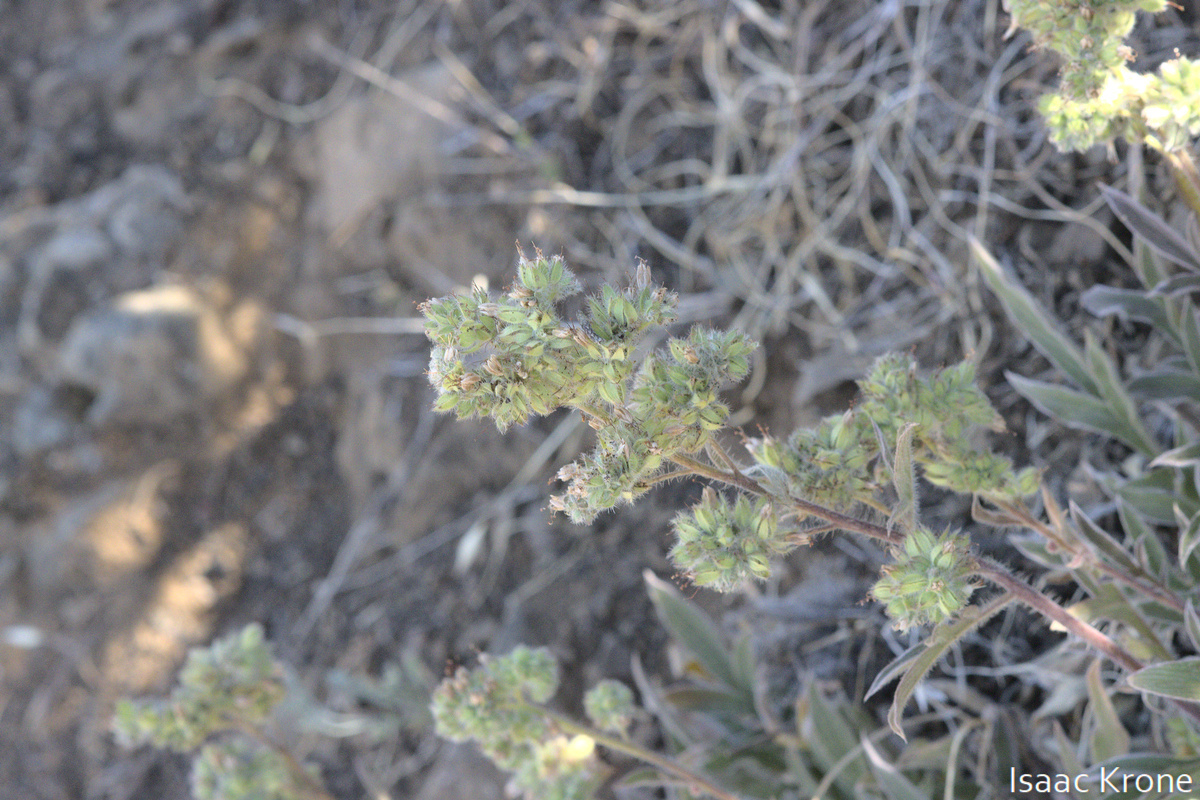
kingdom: Plantae
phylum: Tracheophyta
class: Magnoliopsida
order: Boraginales
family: Hydrophyllaceae
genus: Phacelia
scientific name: Phacelia imbricata
